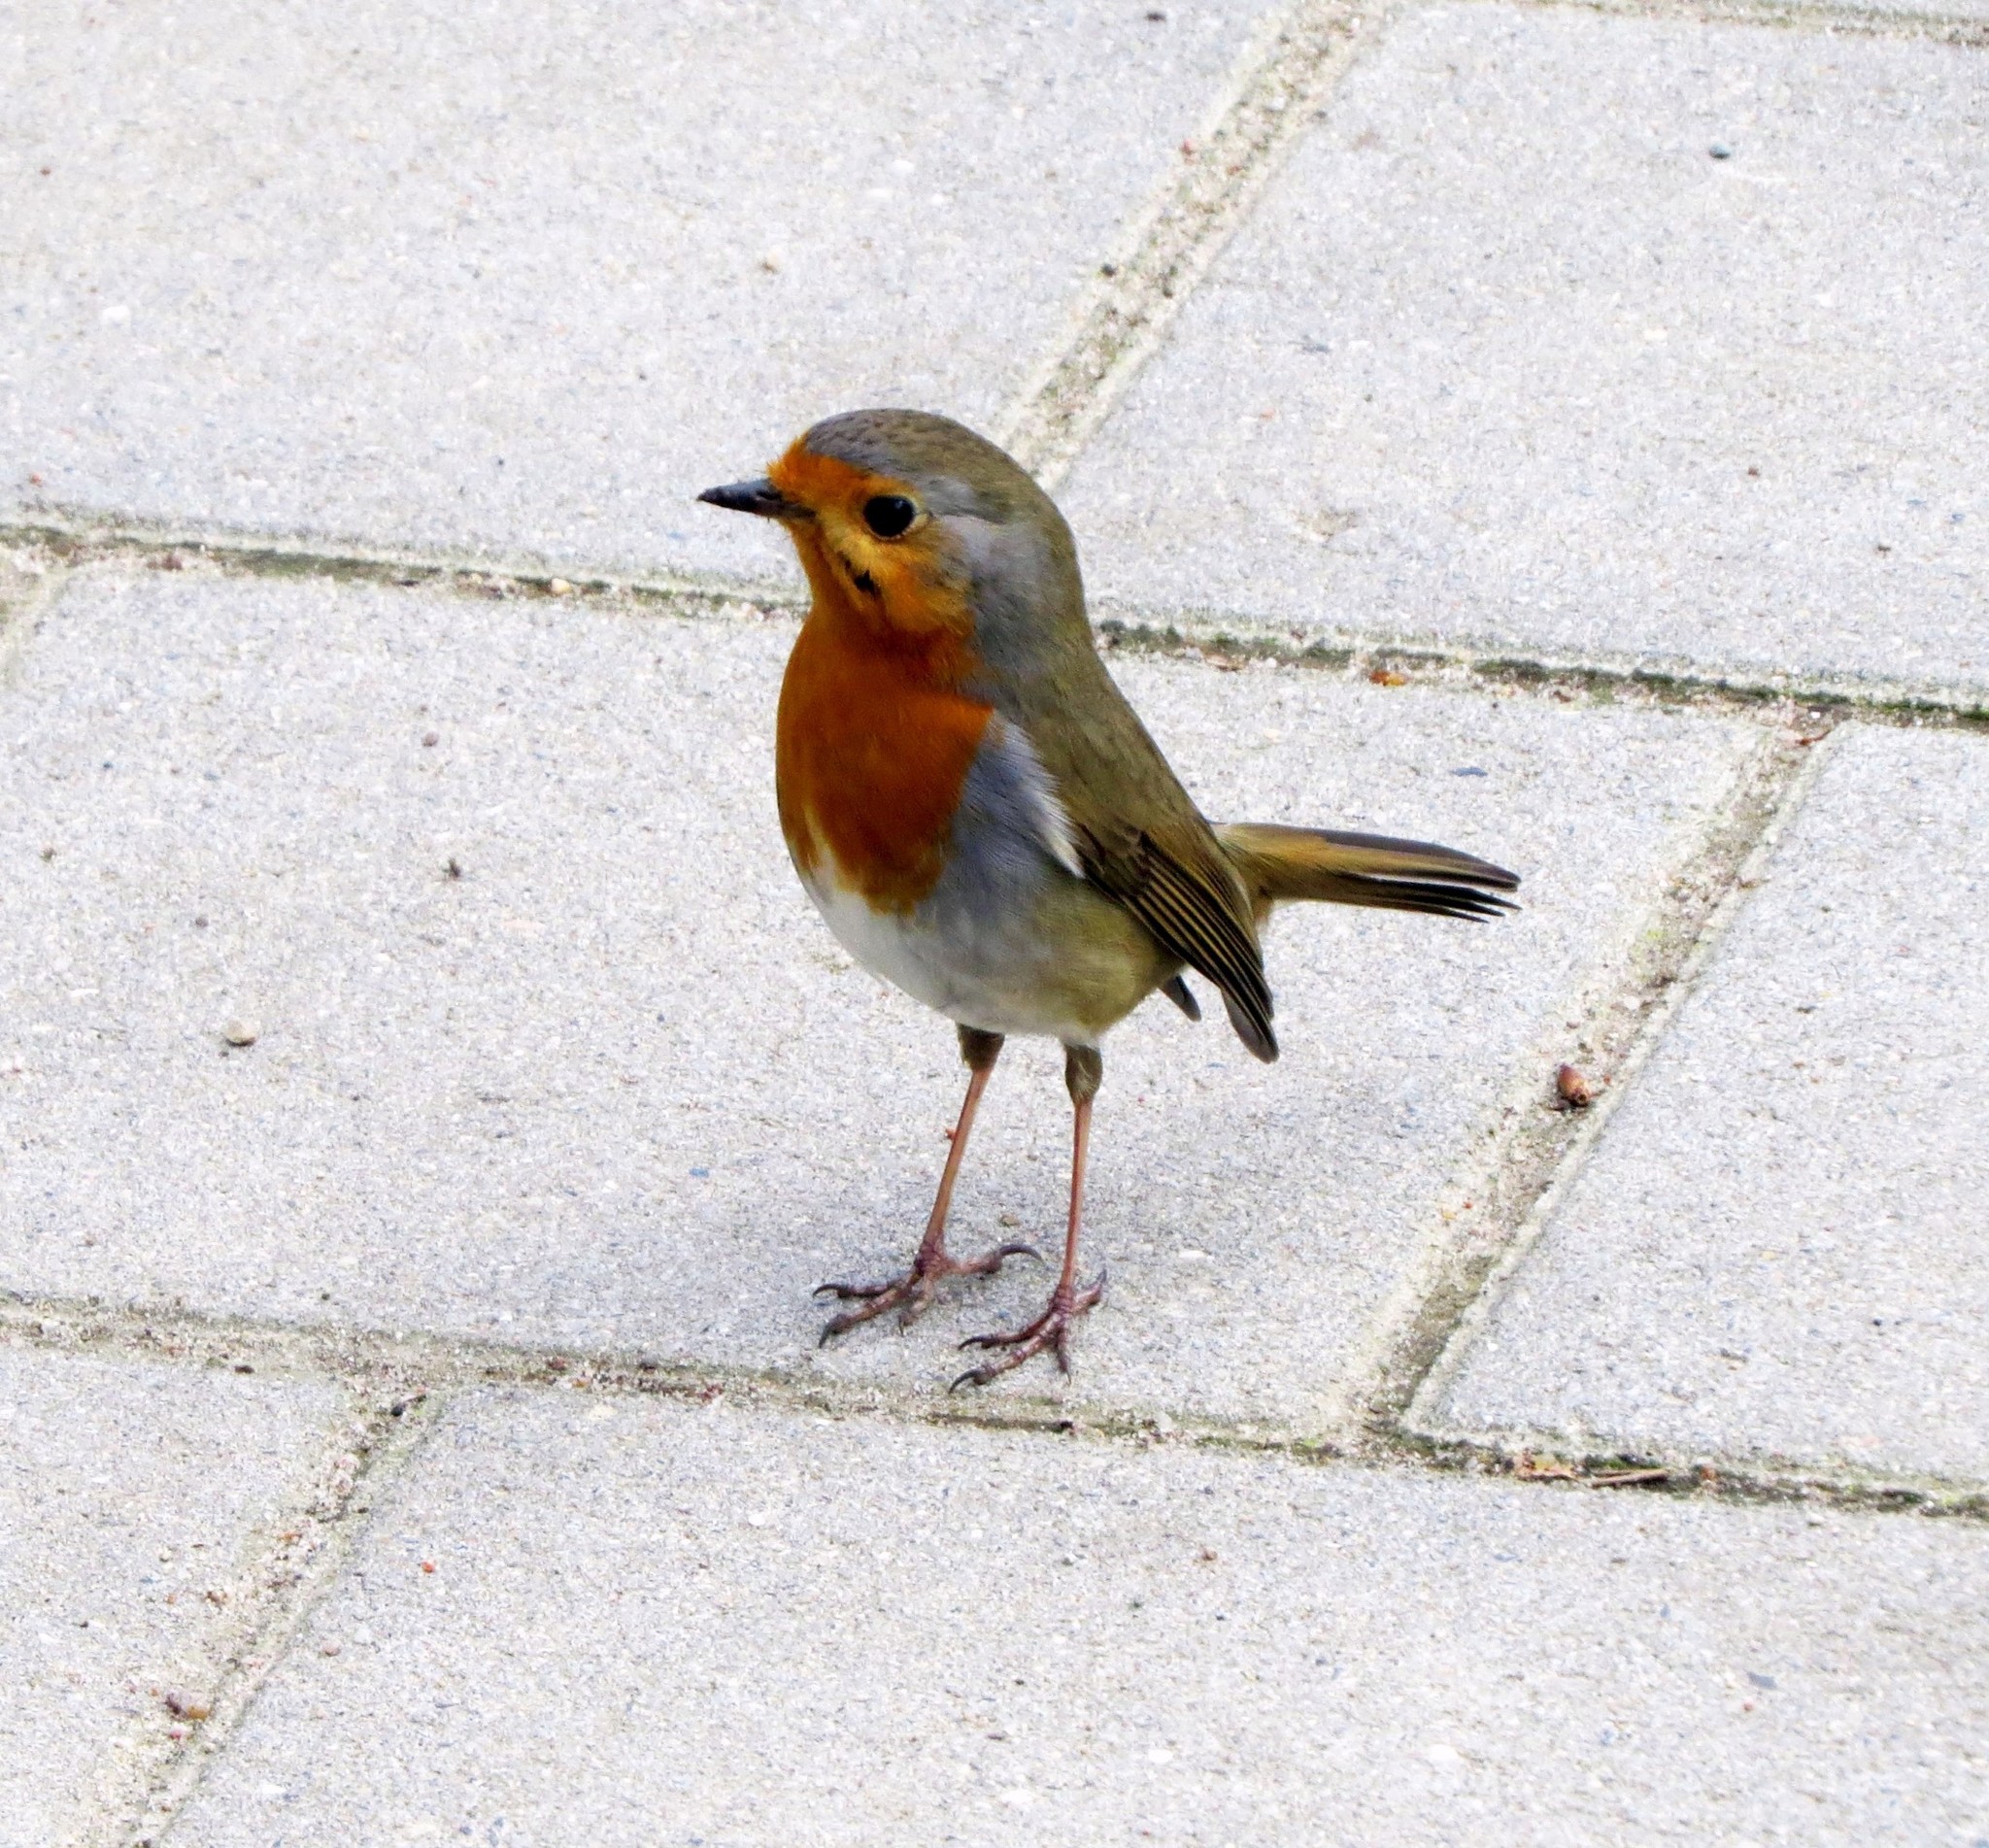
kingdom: Animalia
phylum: Chordata
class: Aves
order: Passeriformes
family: Muscicapidae
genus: Erithacus
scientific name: Erithacus rubecula
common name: European robin
